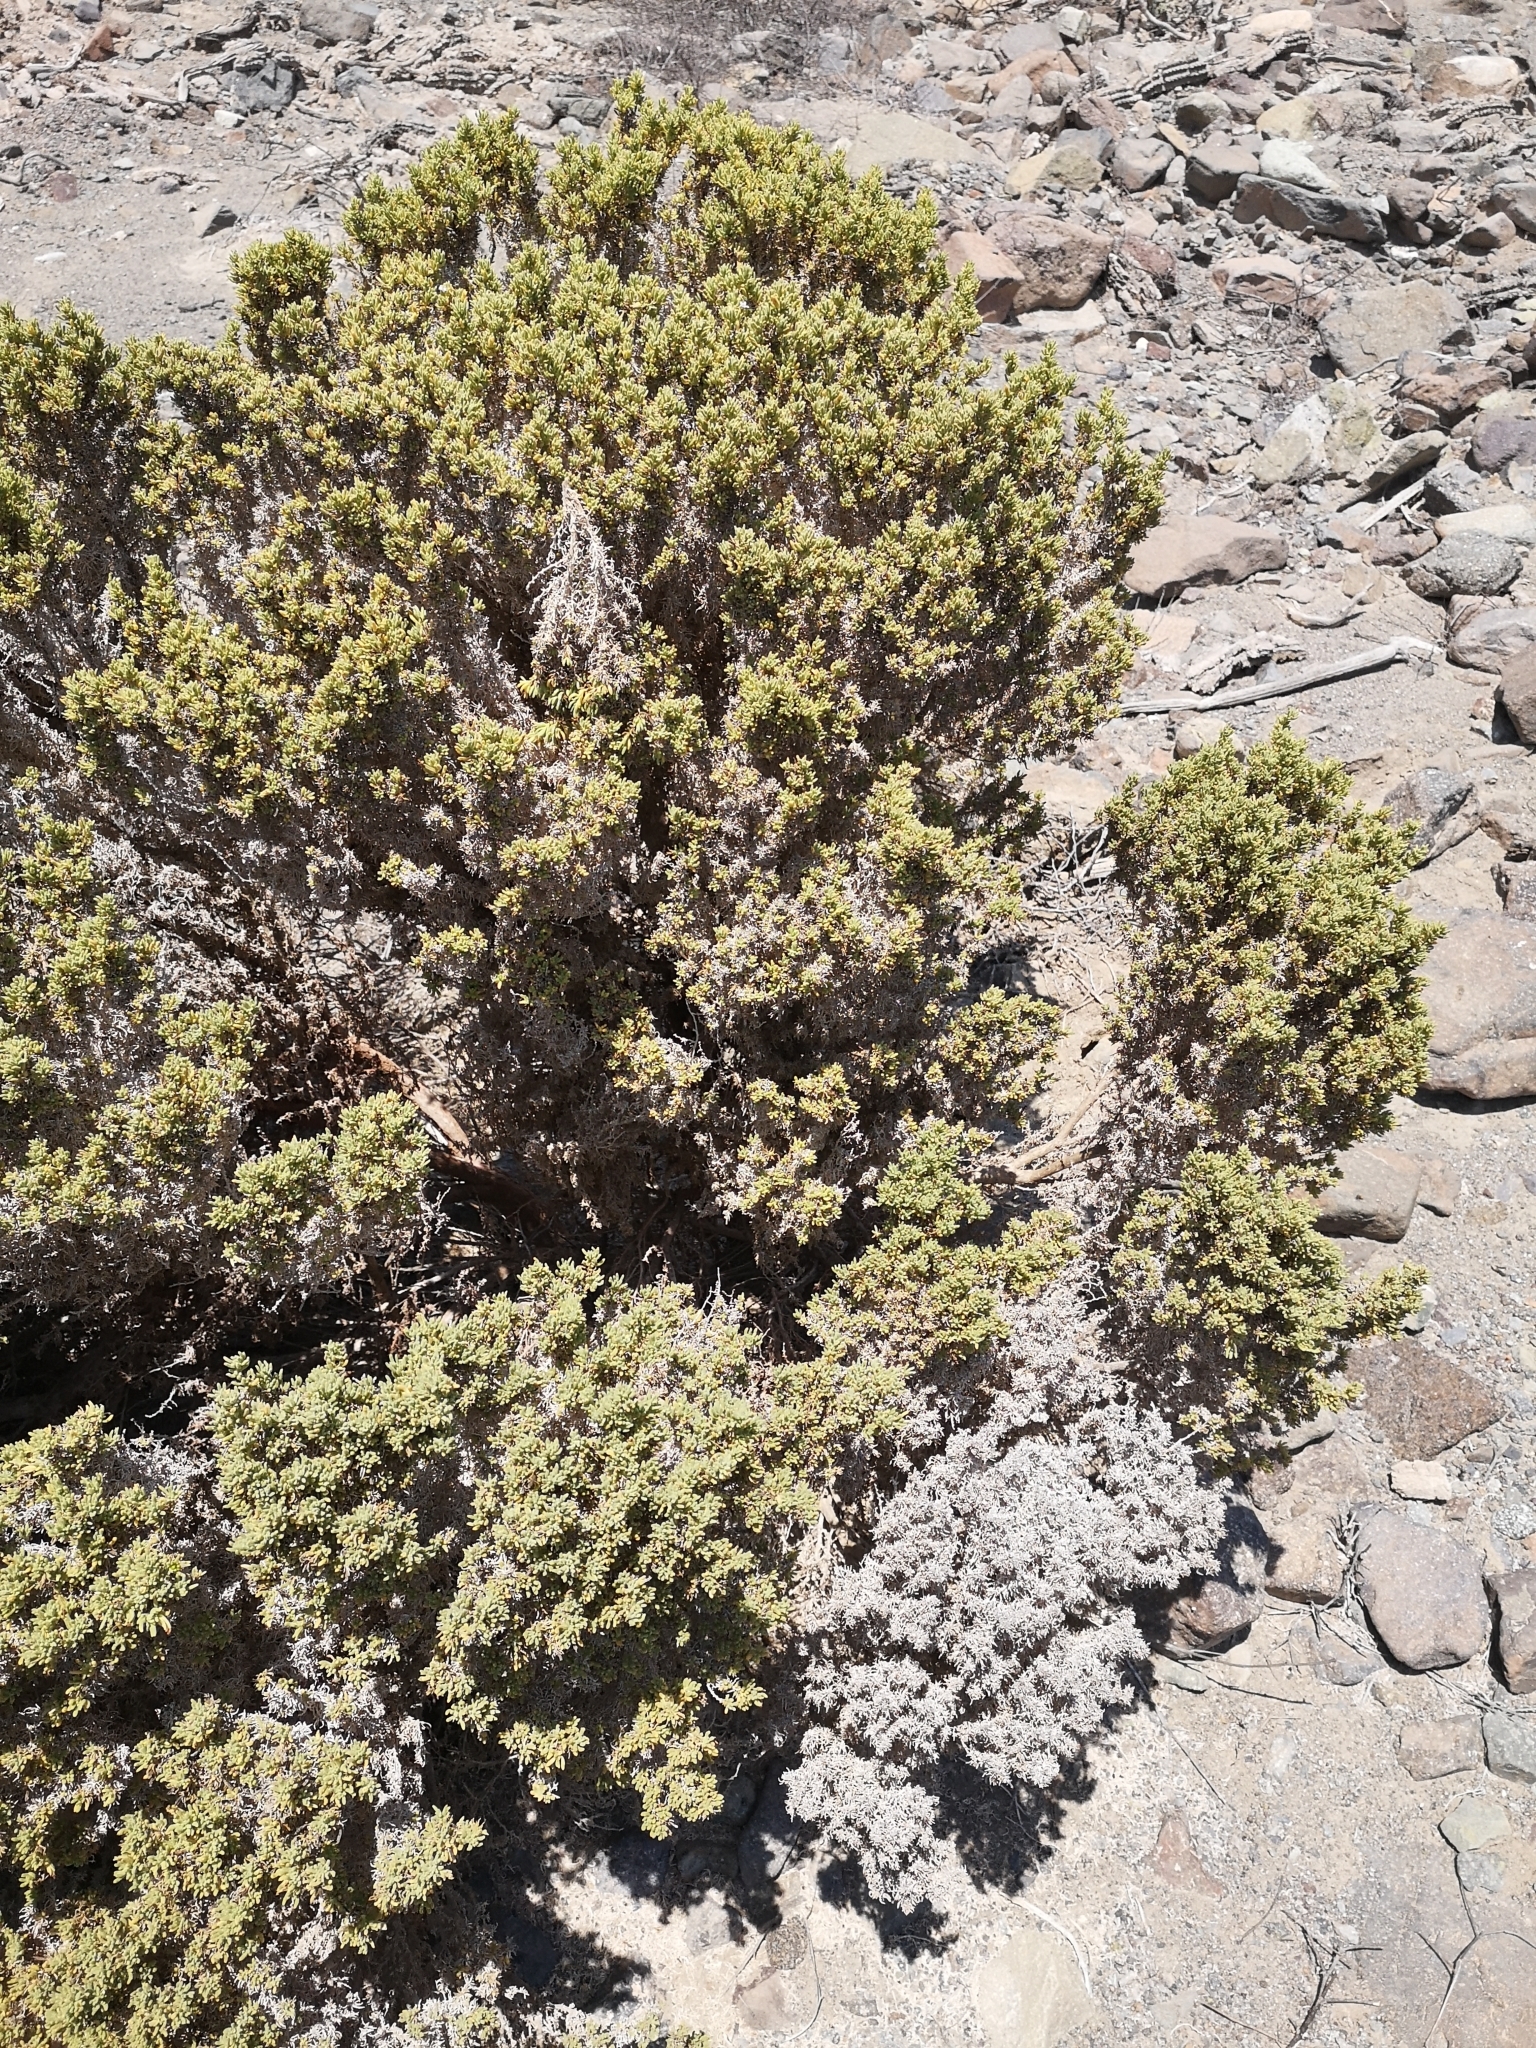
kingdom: Plantae
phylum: Tracheophyta
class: Magnoliopsida
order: Solanales
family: Solanaceae
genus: Nolana
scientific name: Nolana ramosissima
